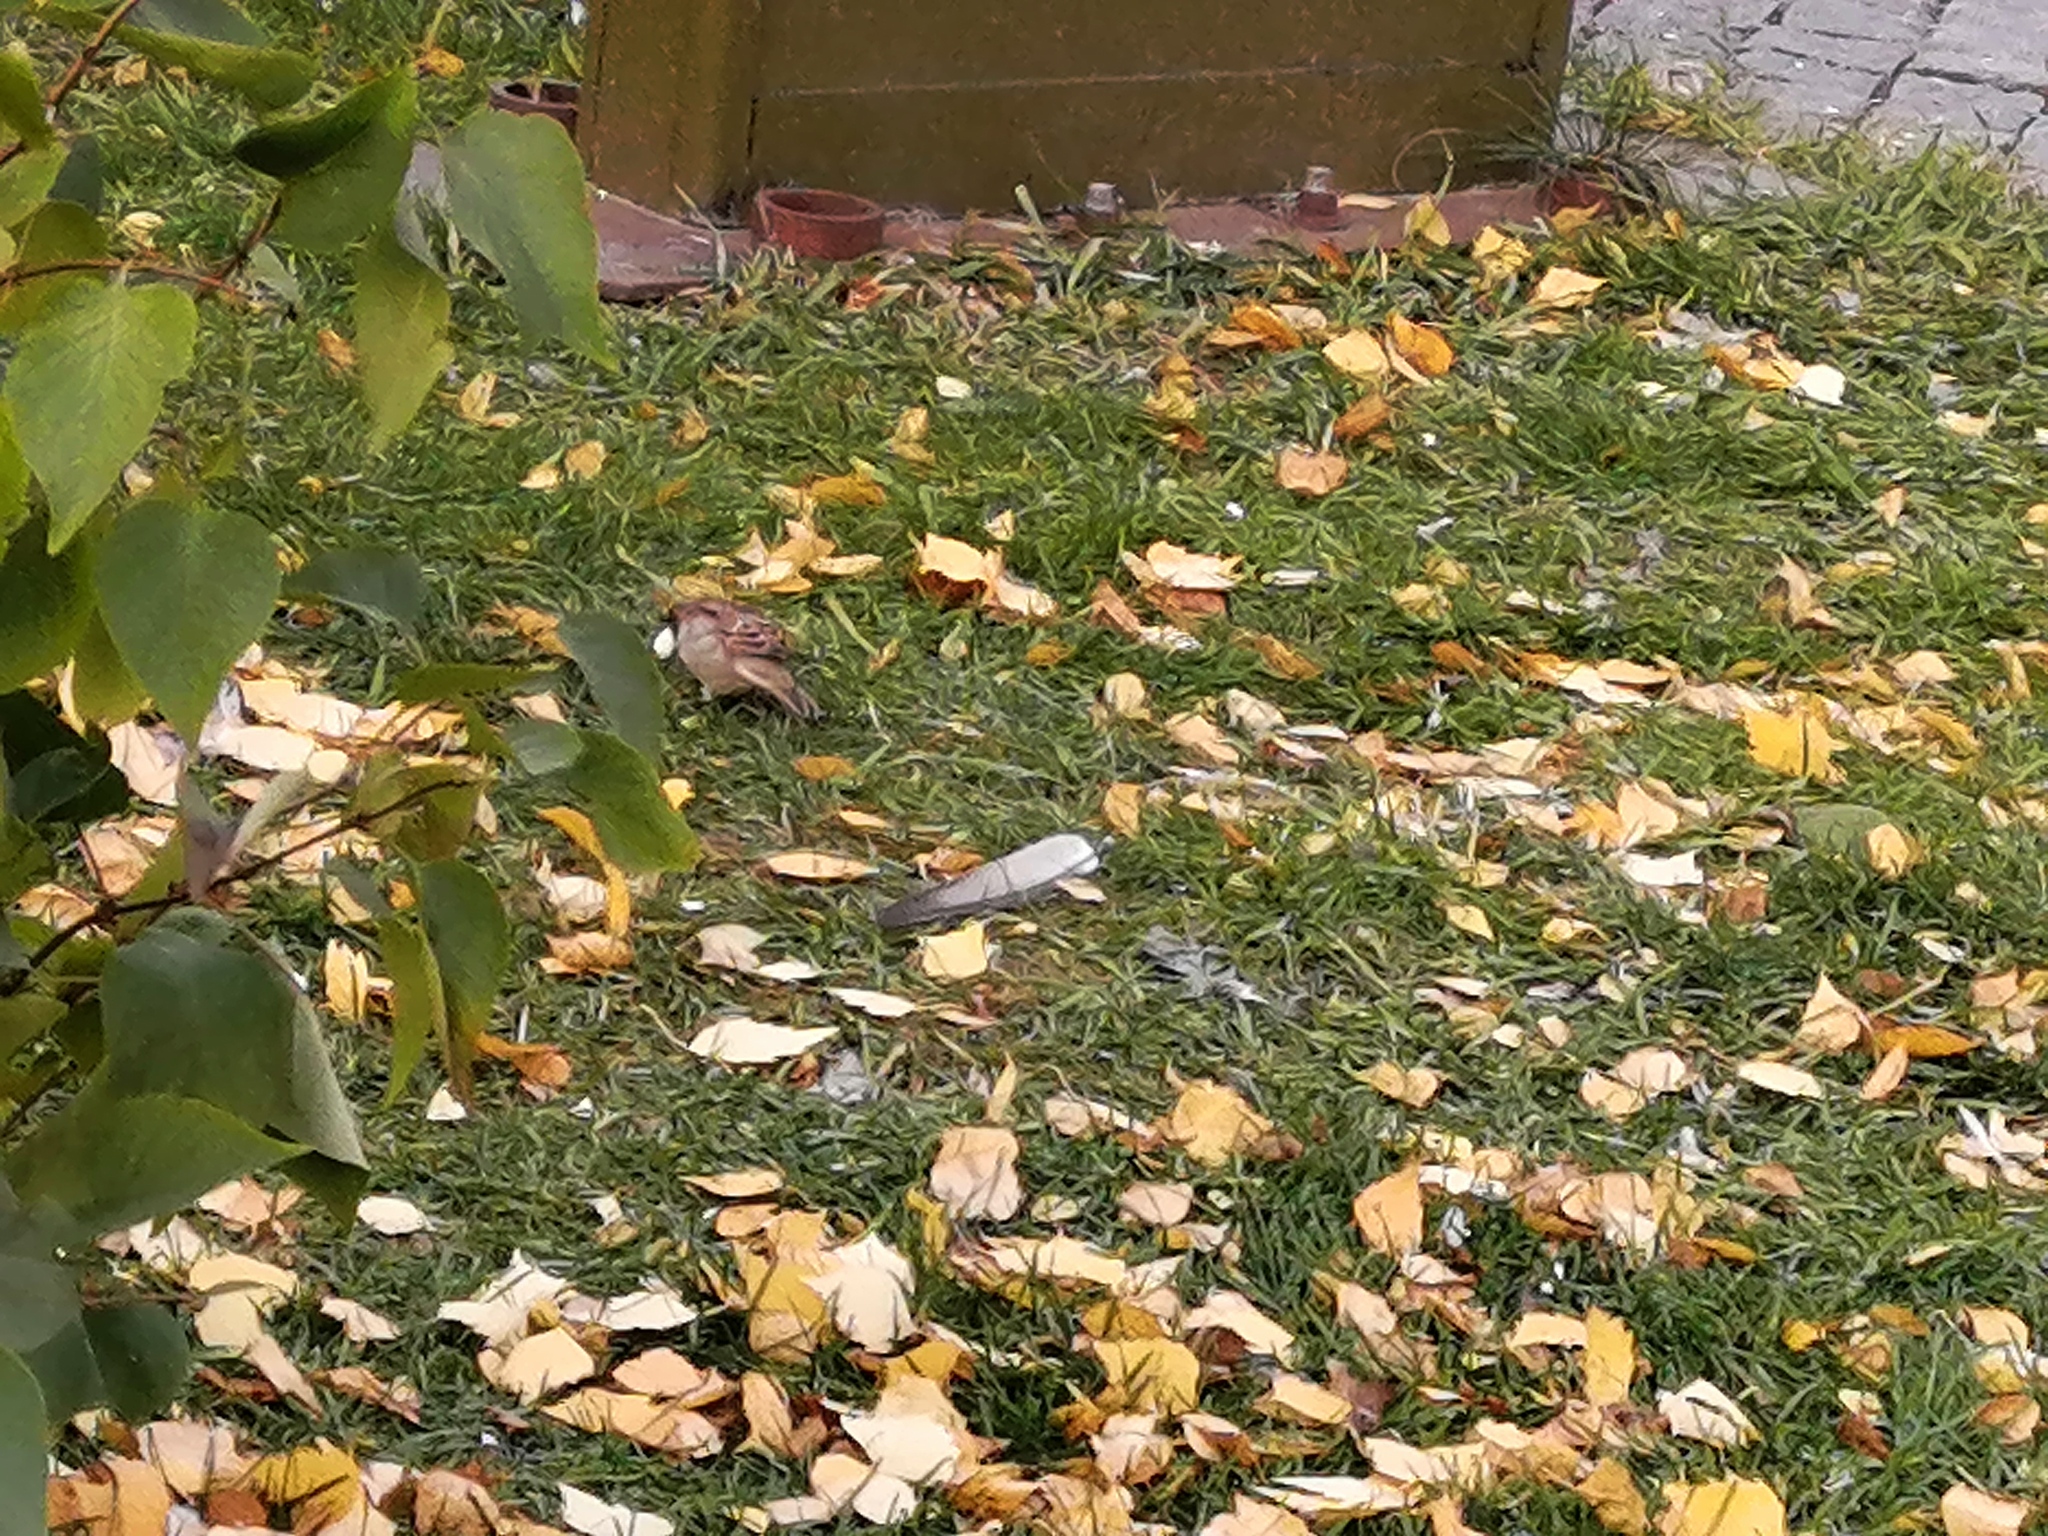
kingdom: Animalia
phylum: Chordata
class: Aves
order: Passeriformes
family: Passeridae
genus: Passer
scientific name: Passer domesticus
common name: House sparrow
